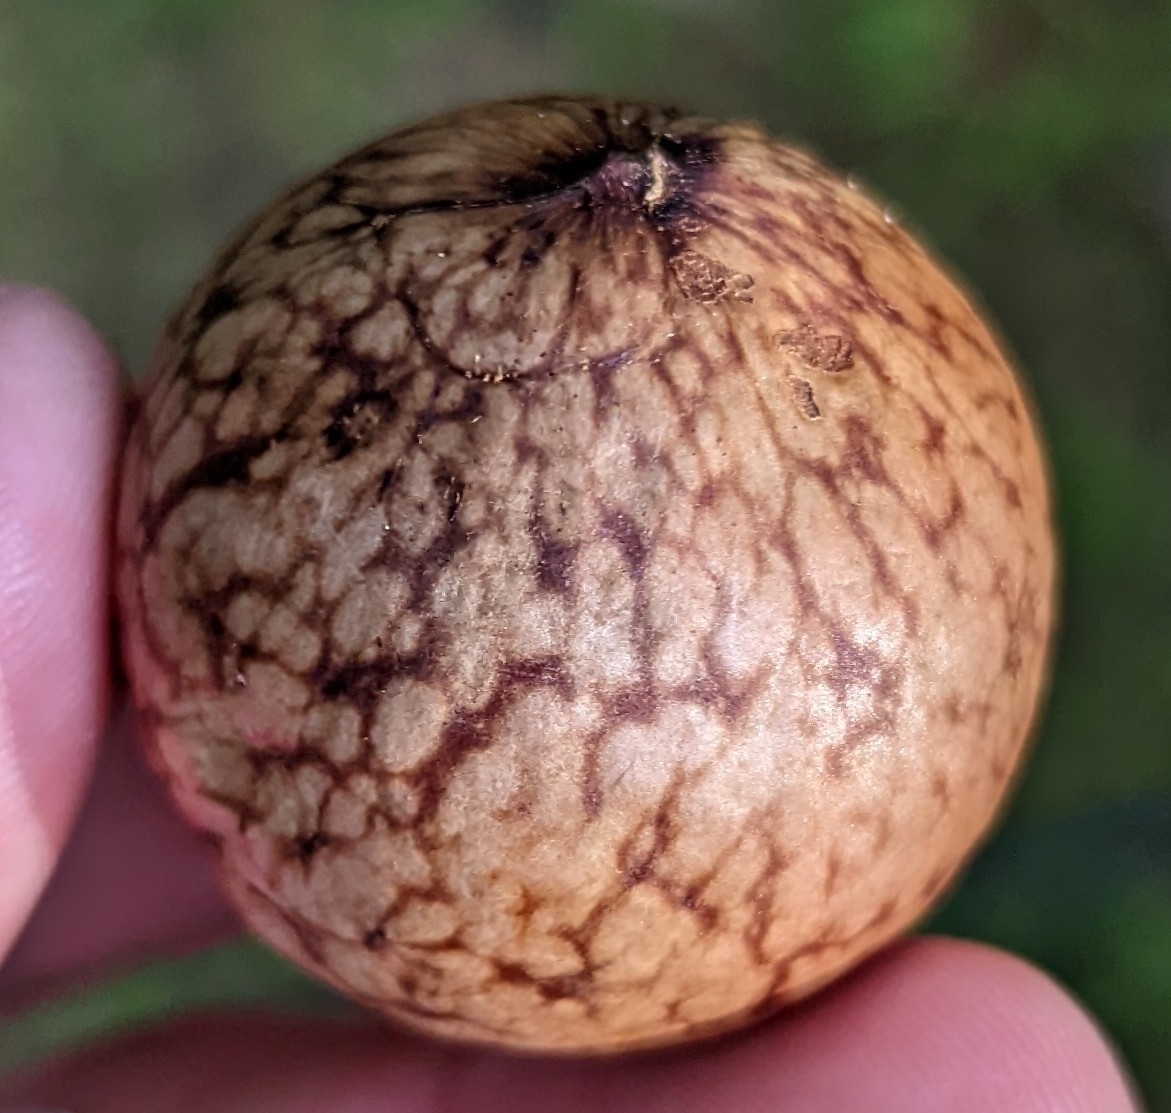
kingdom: Animalia
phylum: Arthropoda
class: Insecta
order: Hymenoptera
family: Cynipidae
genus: Amphibolips
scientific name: Amphibolips
